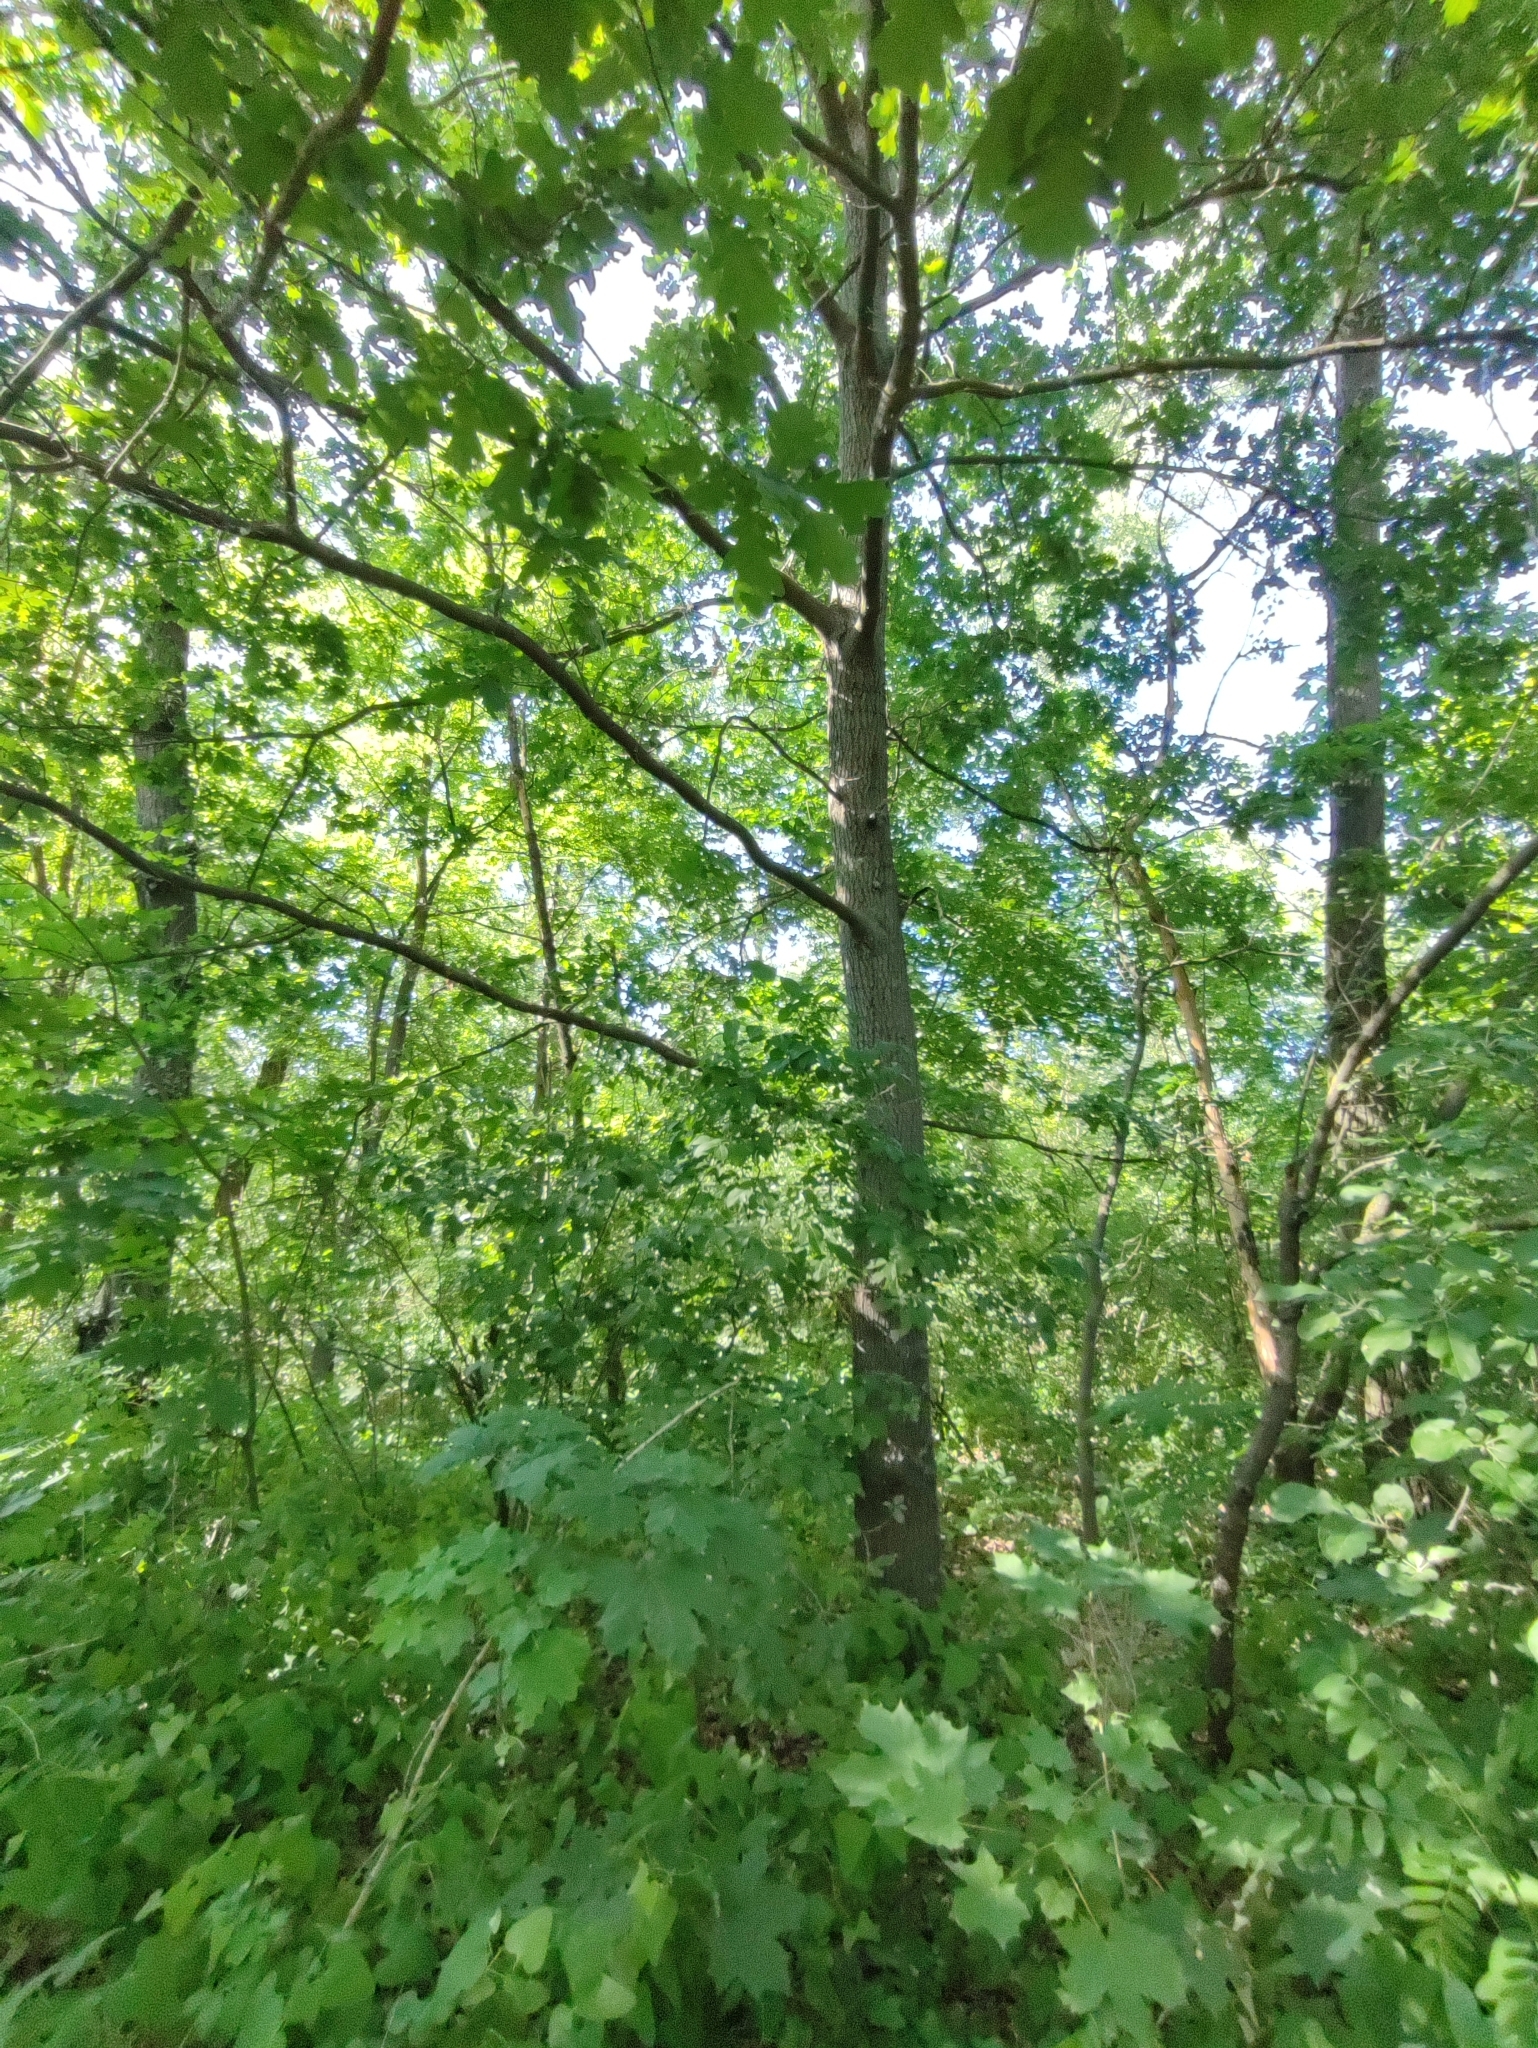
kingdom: Plantae
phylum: Tracheophyta
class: Magnoliopsida
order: Fagales
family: Fagaceae
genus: Quercus
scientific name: Quercus robur
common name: Pedunculate oak
